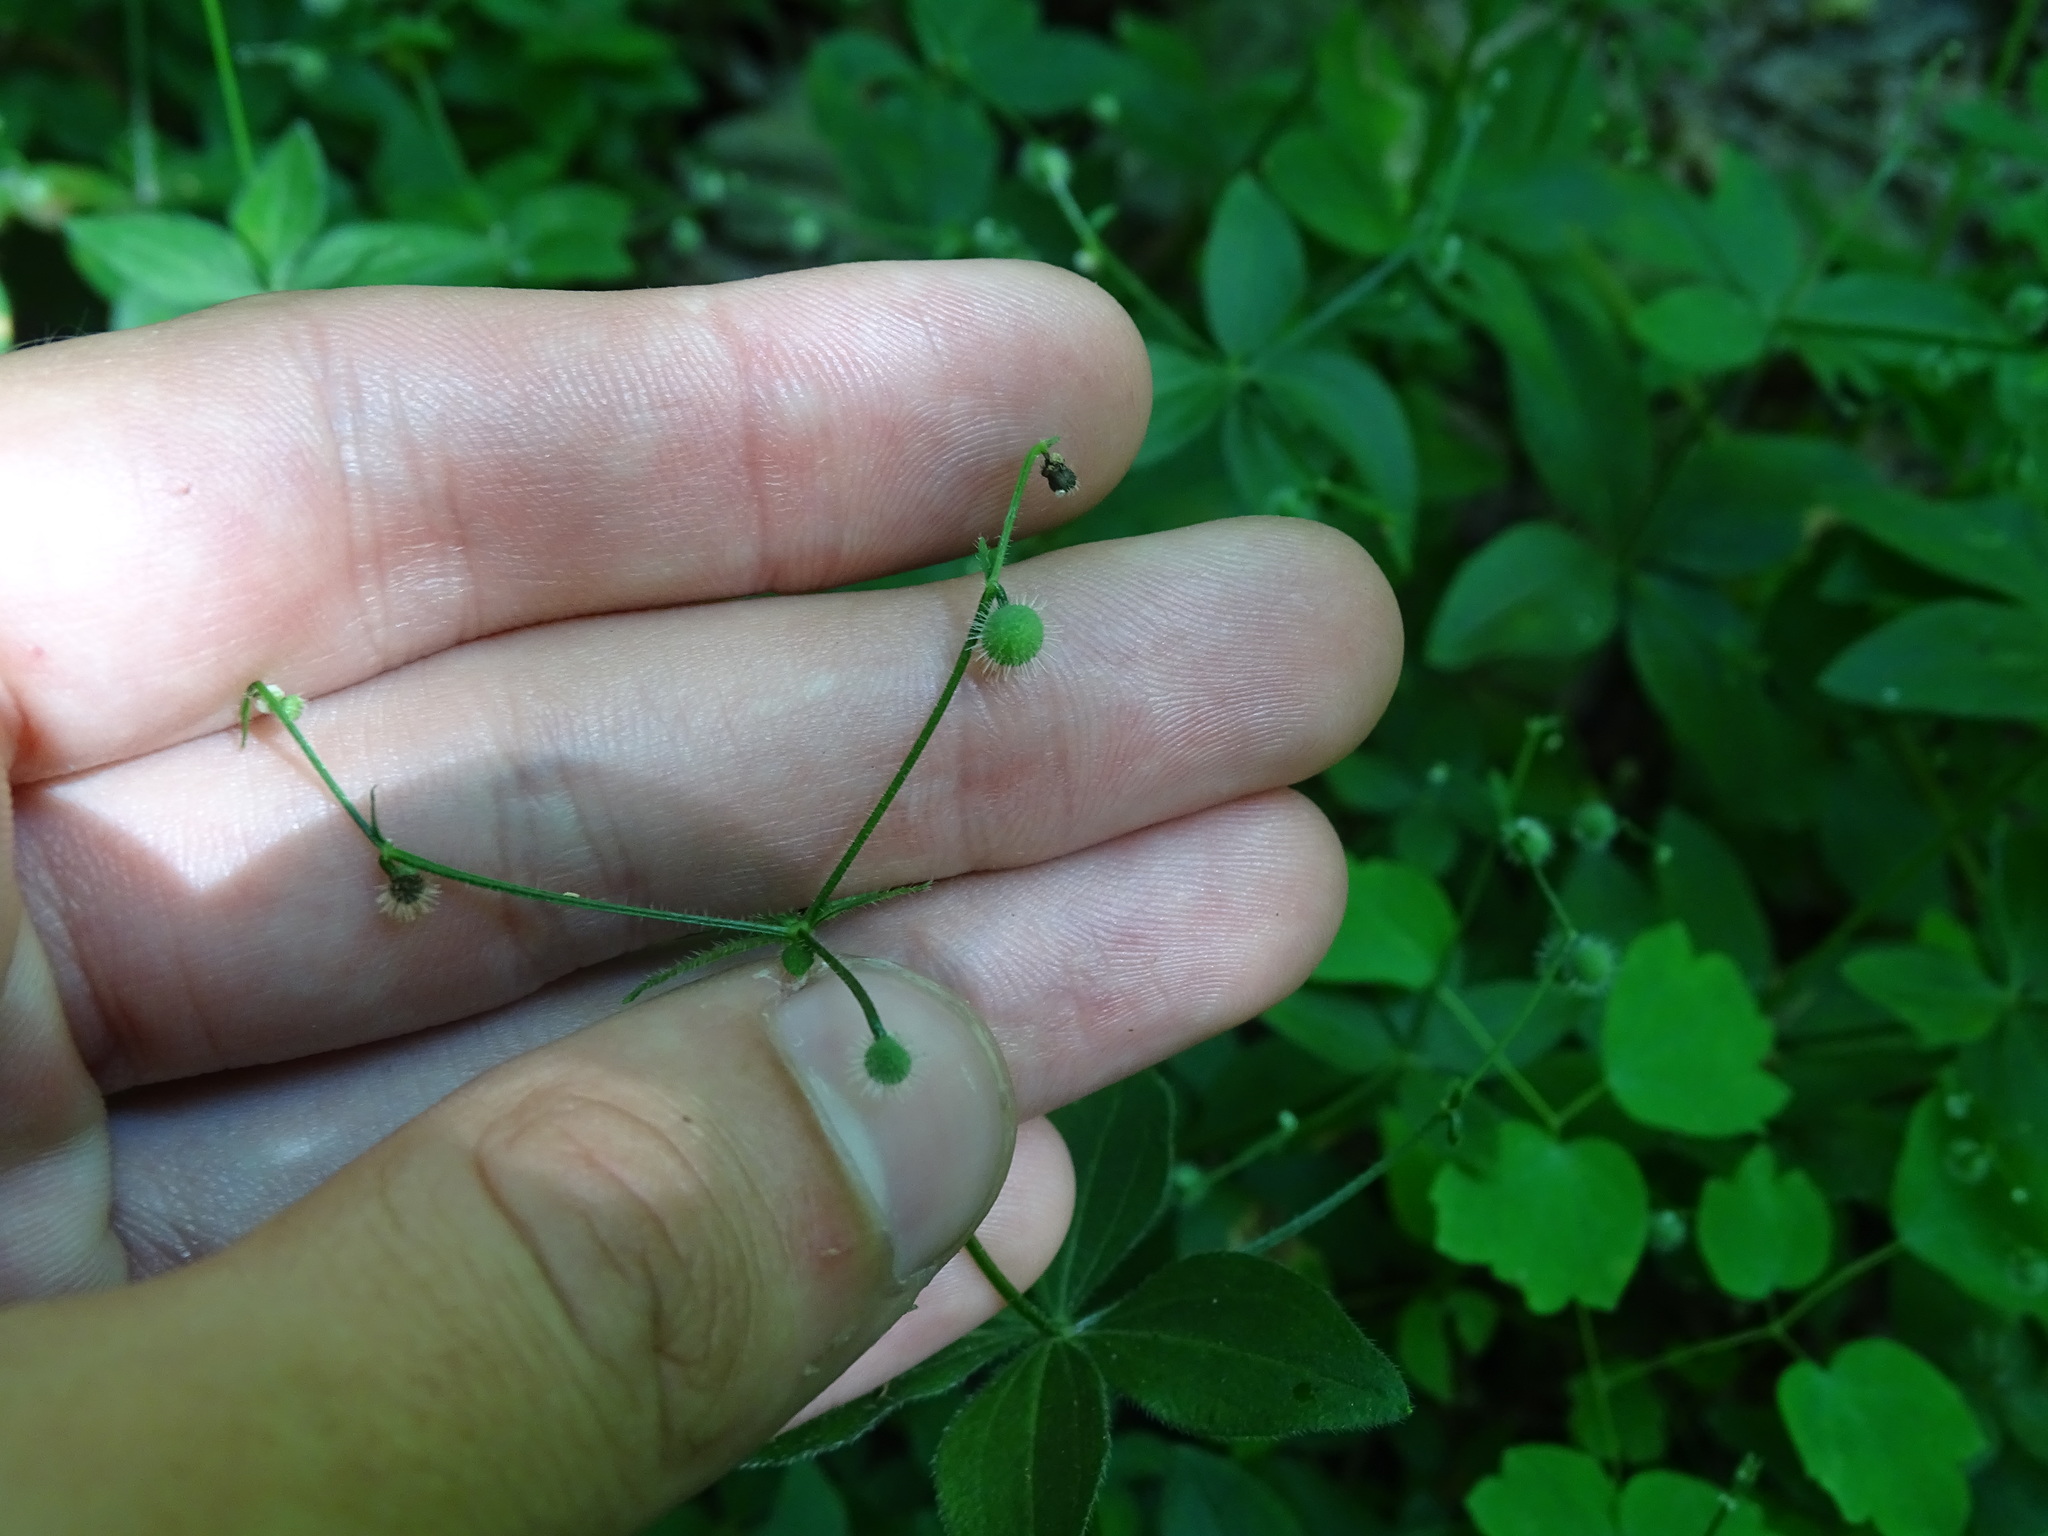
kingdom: Plantae
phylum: Tracheophyta
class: Magnoliopsida
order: Gentianales
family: Rubiaceae
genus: Galium
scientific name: Galium circaezans
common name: Forest bedstraw
